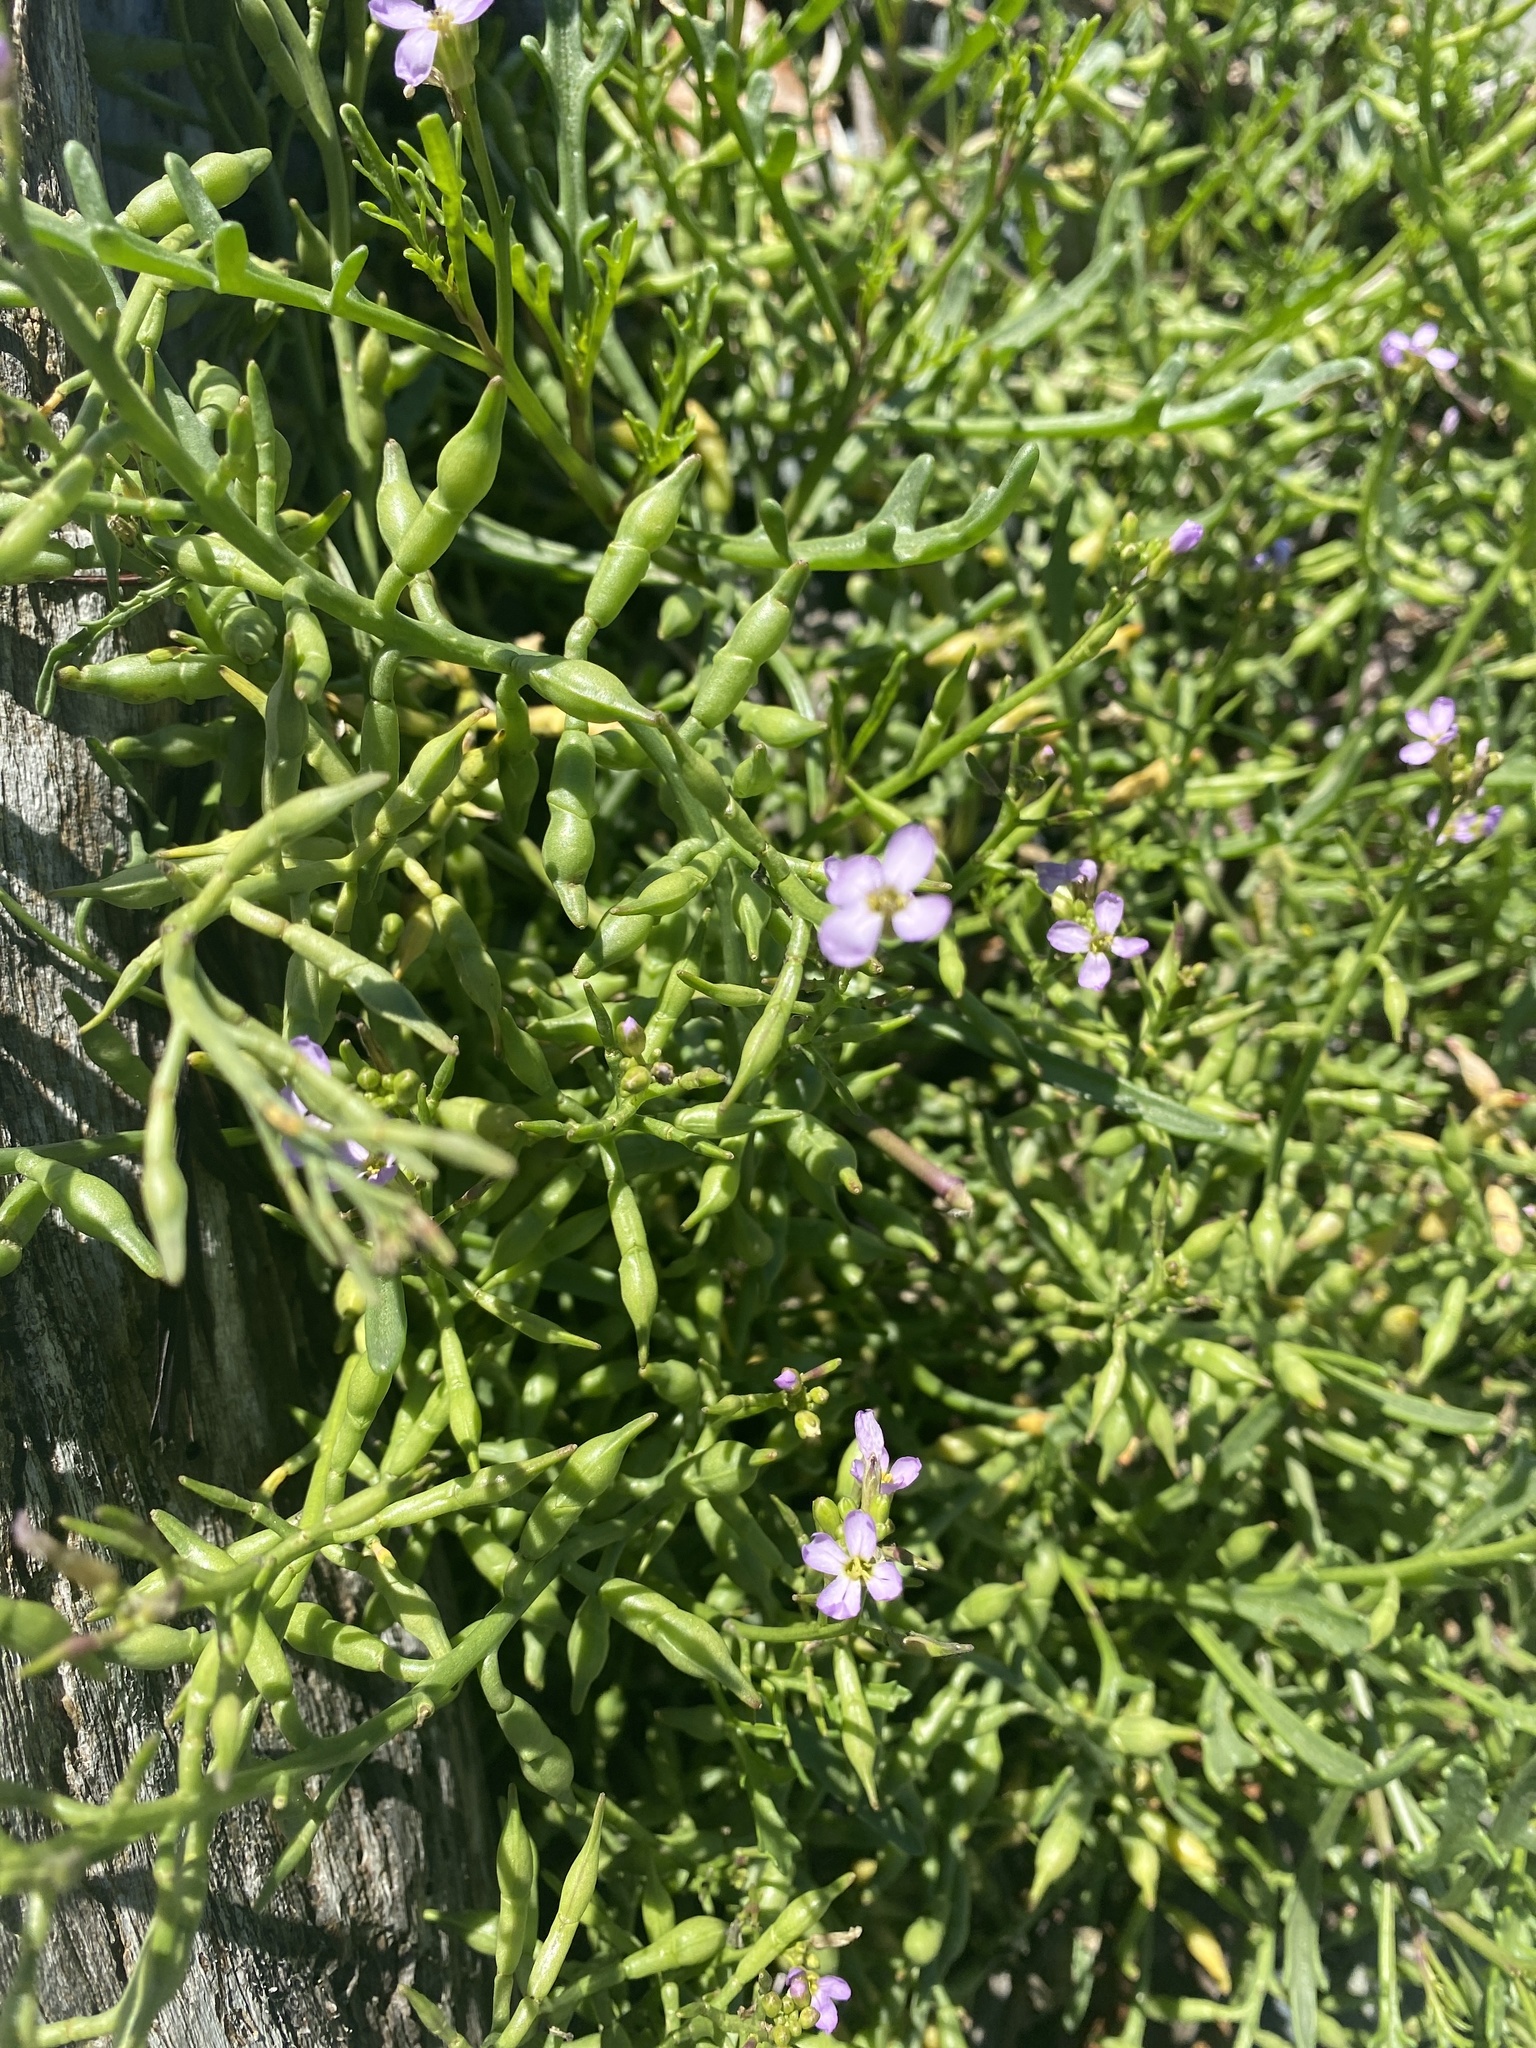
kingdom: Plantae
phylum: Tracheophyta
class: Magnoliopsida
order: Brassicales
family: Brassicaceae
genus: Cakile
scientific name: Cakile maritima
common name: Sea rocket
